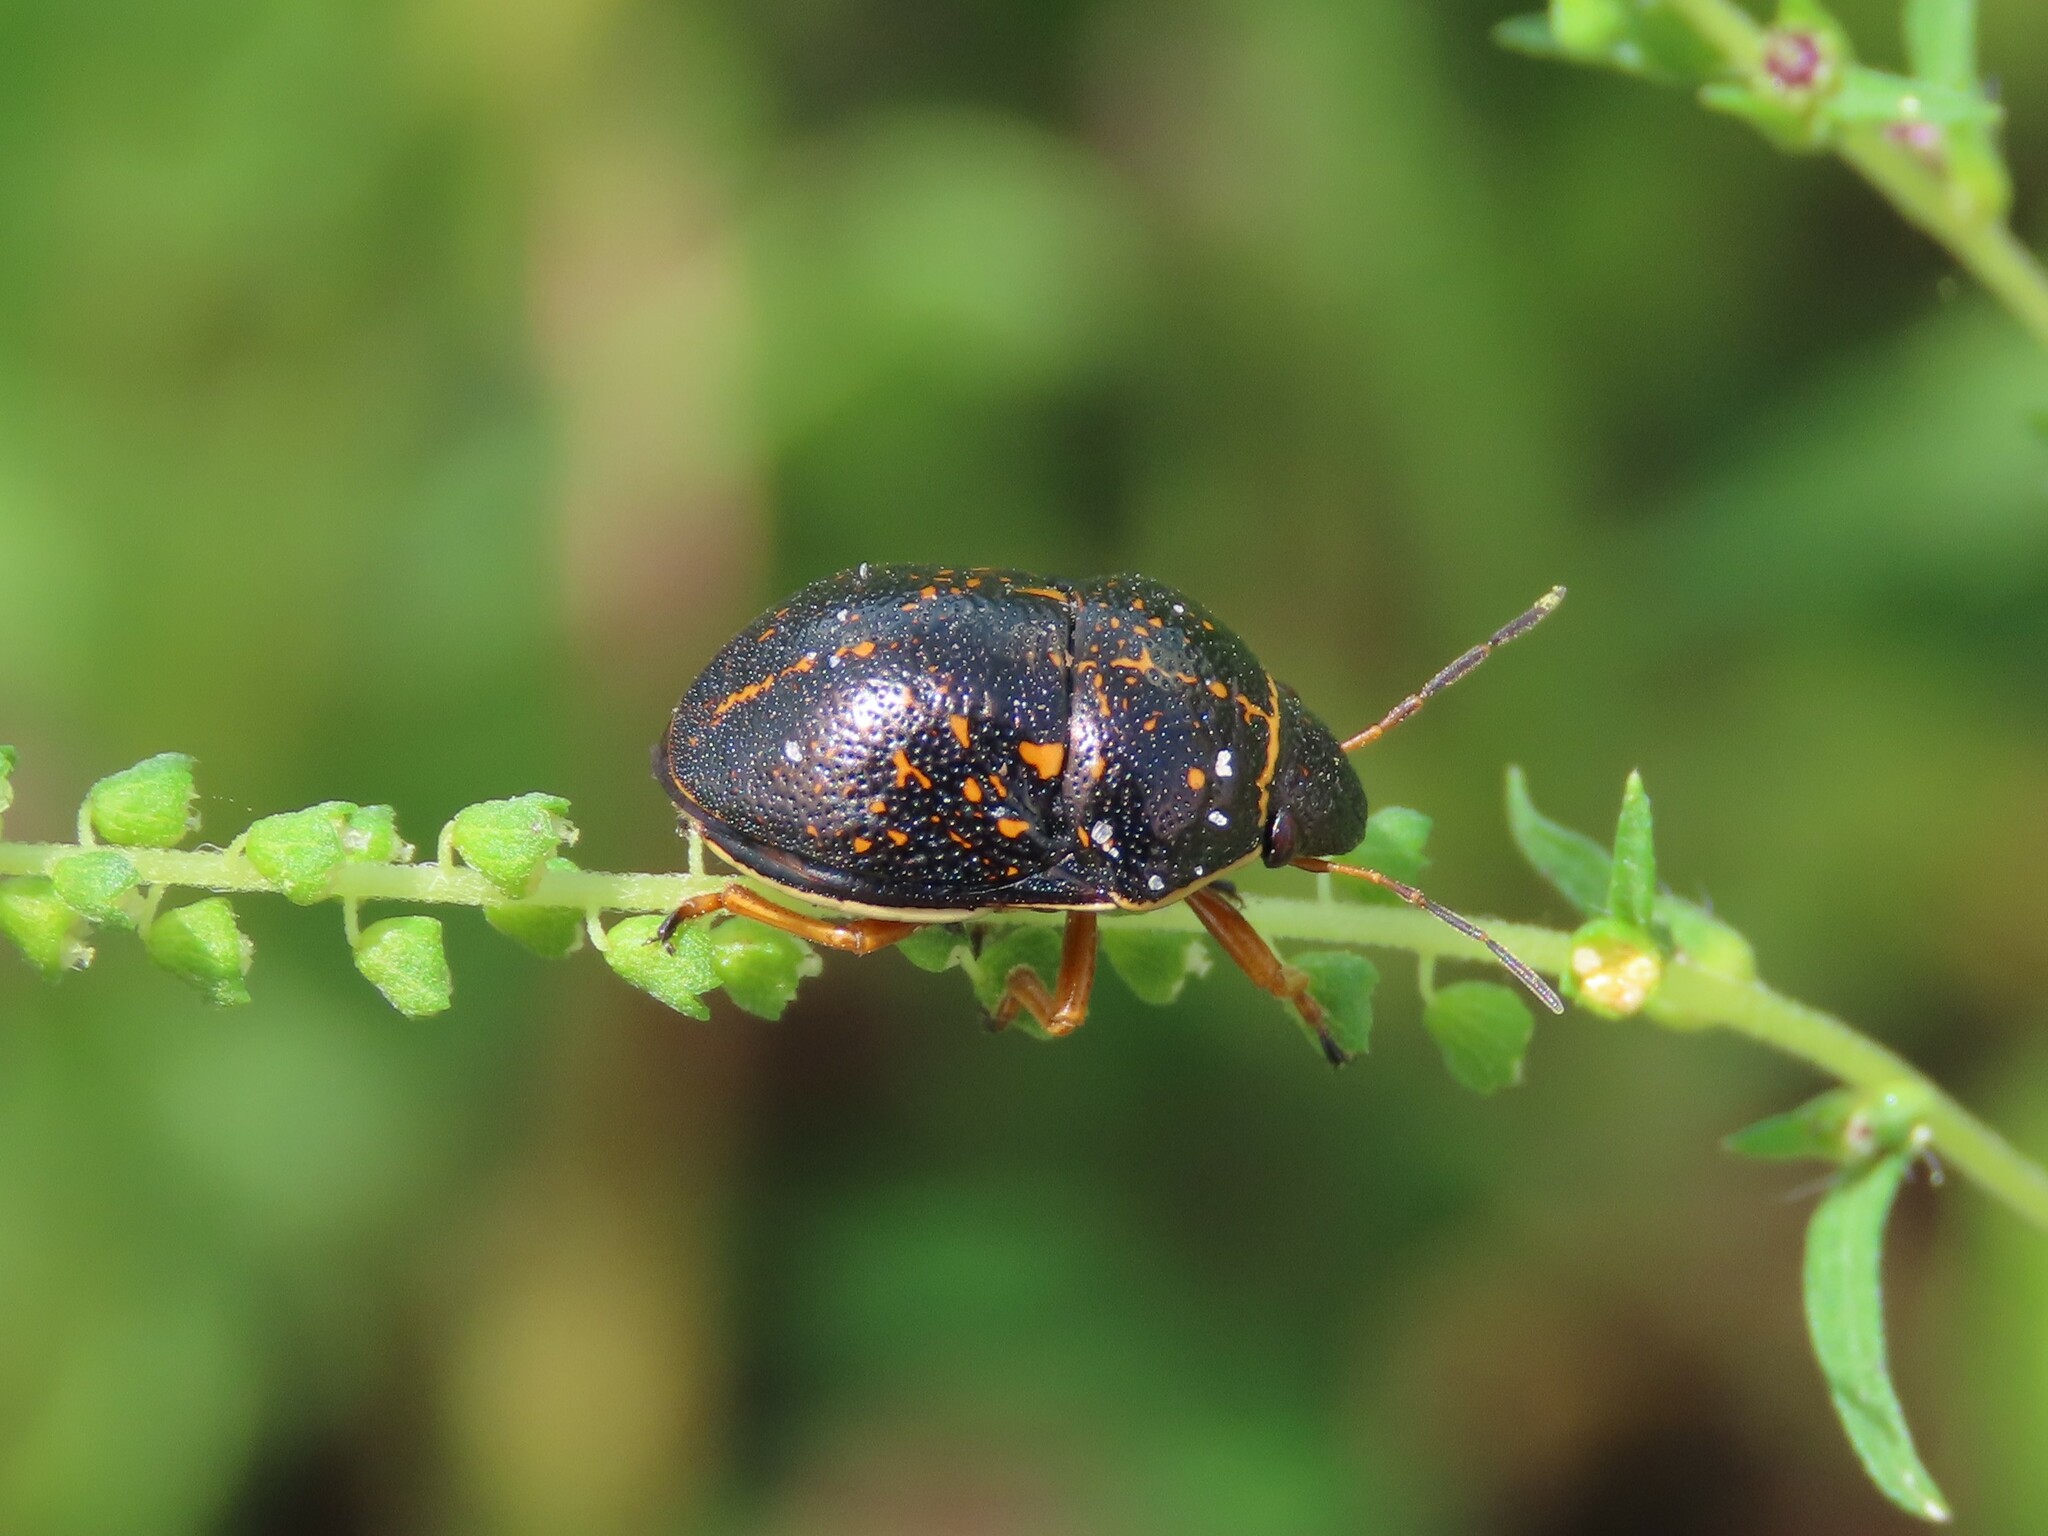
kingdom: Animalia
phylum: Arthropoda
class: Insecta
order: Hemiptera
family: Scutelleridae
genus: Orsilochides
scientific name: Orsilochides guttata
